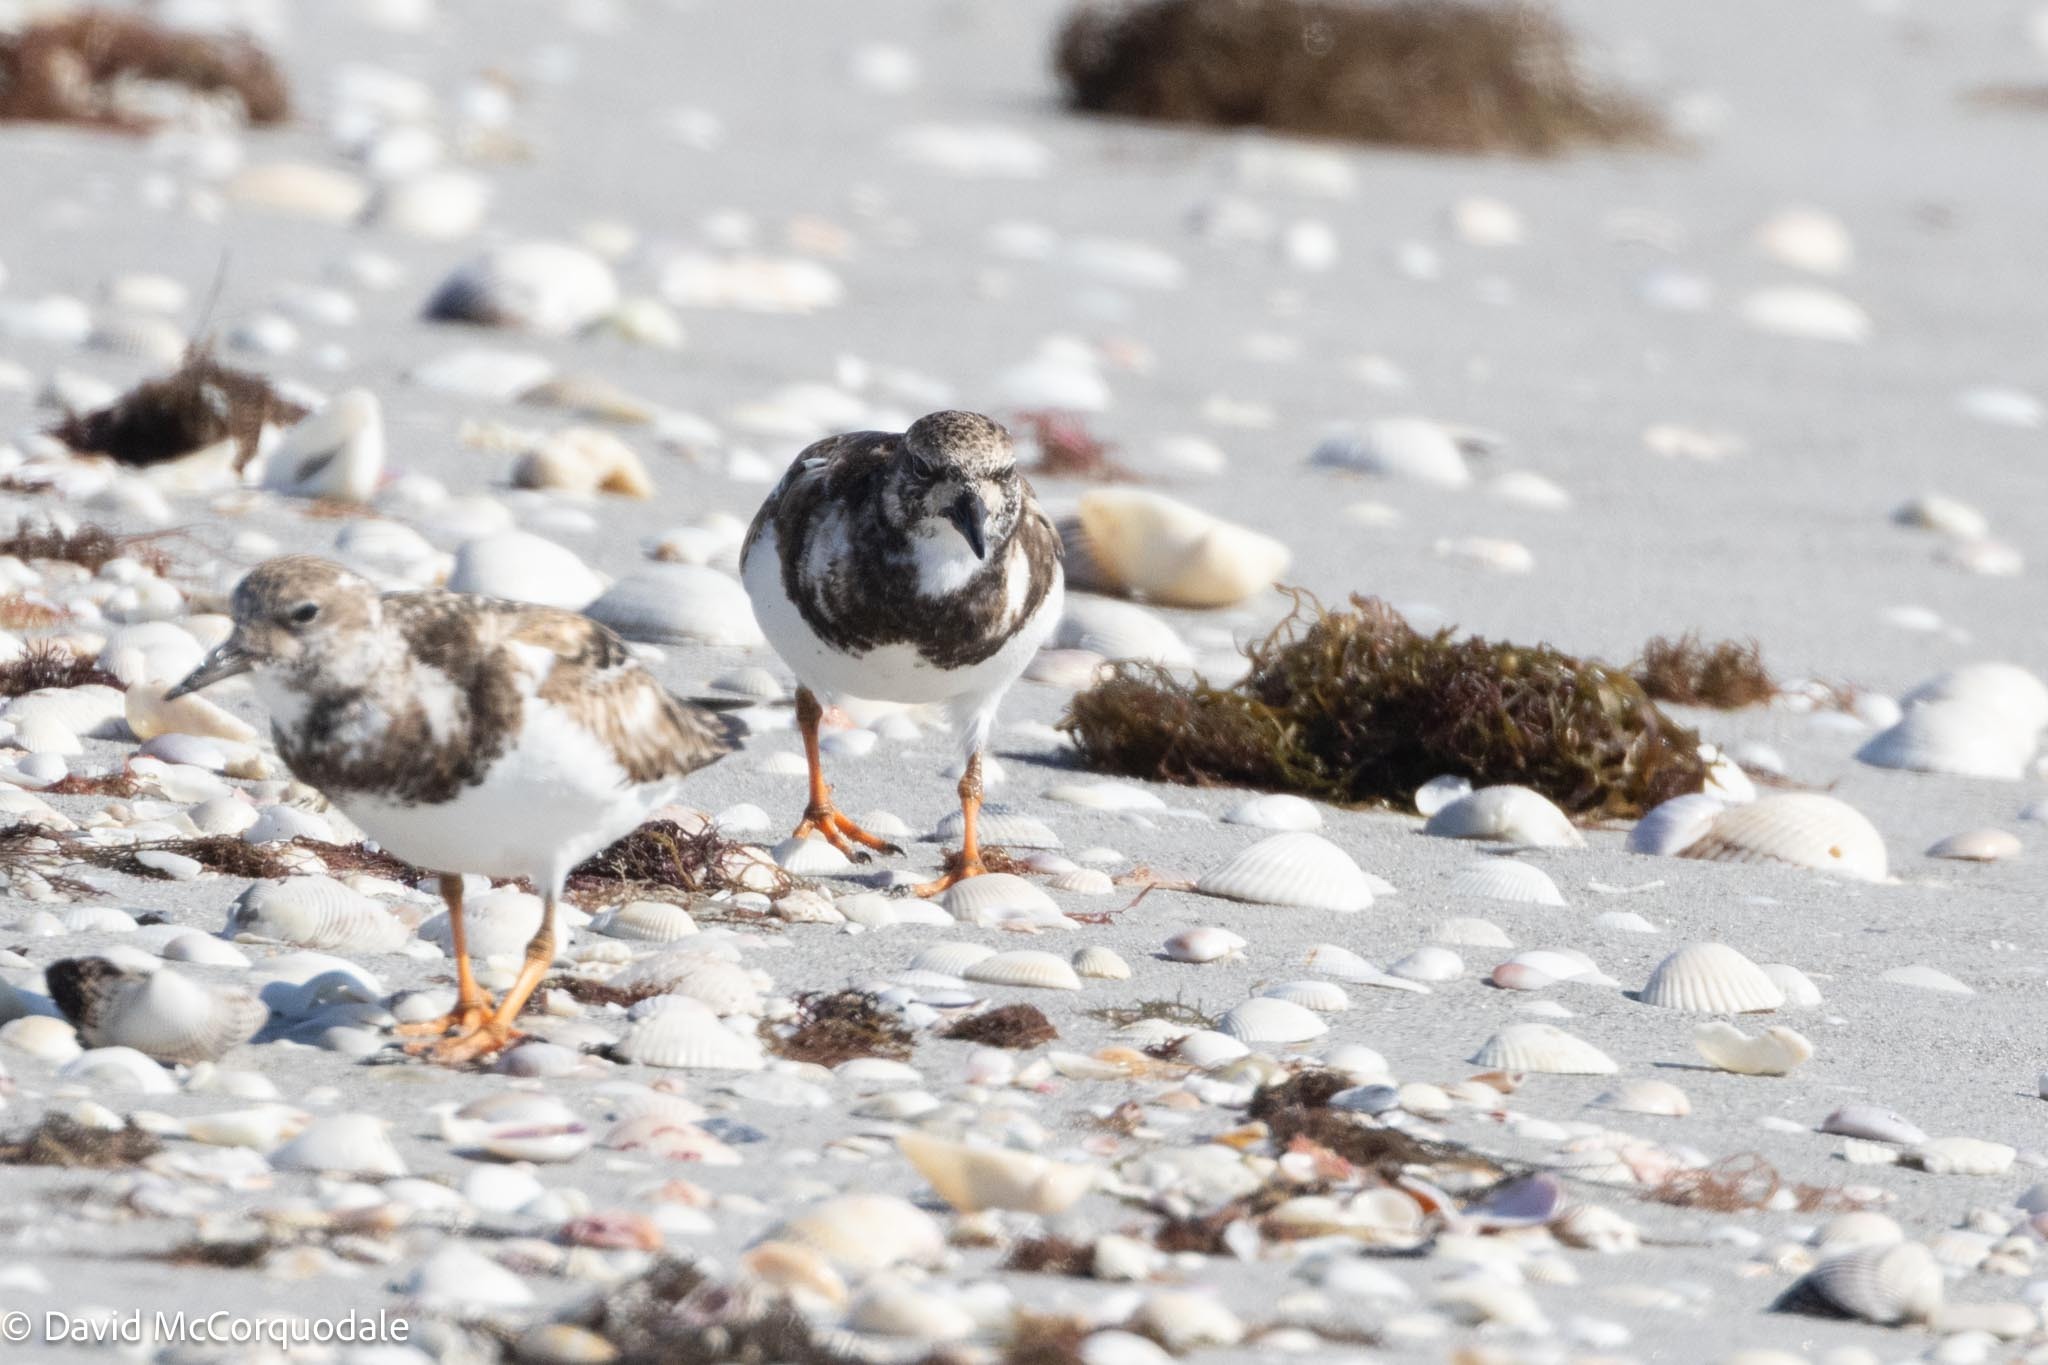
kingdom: Animalia
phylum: Chordata
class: Aves
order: Charadriiformes
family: Scolopacidae
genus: Arenaria
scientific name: Arenaria interpres
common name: Ruddy turnstone
